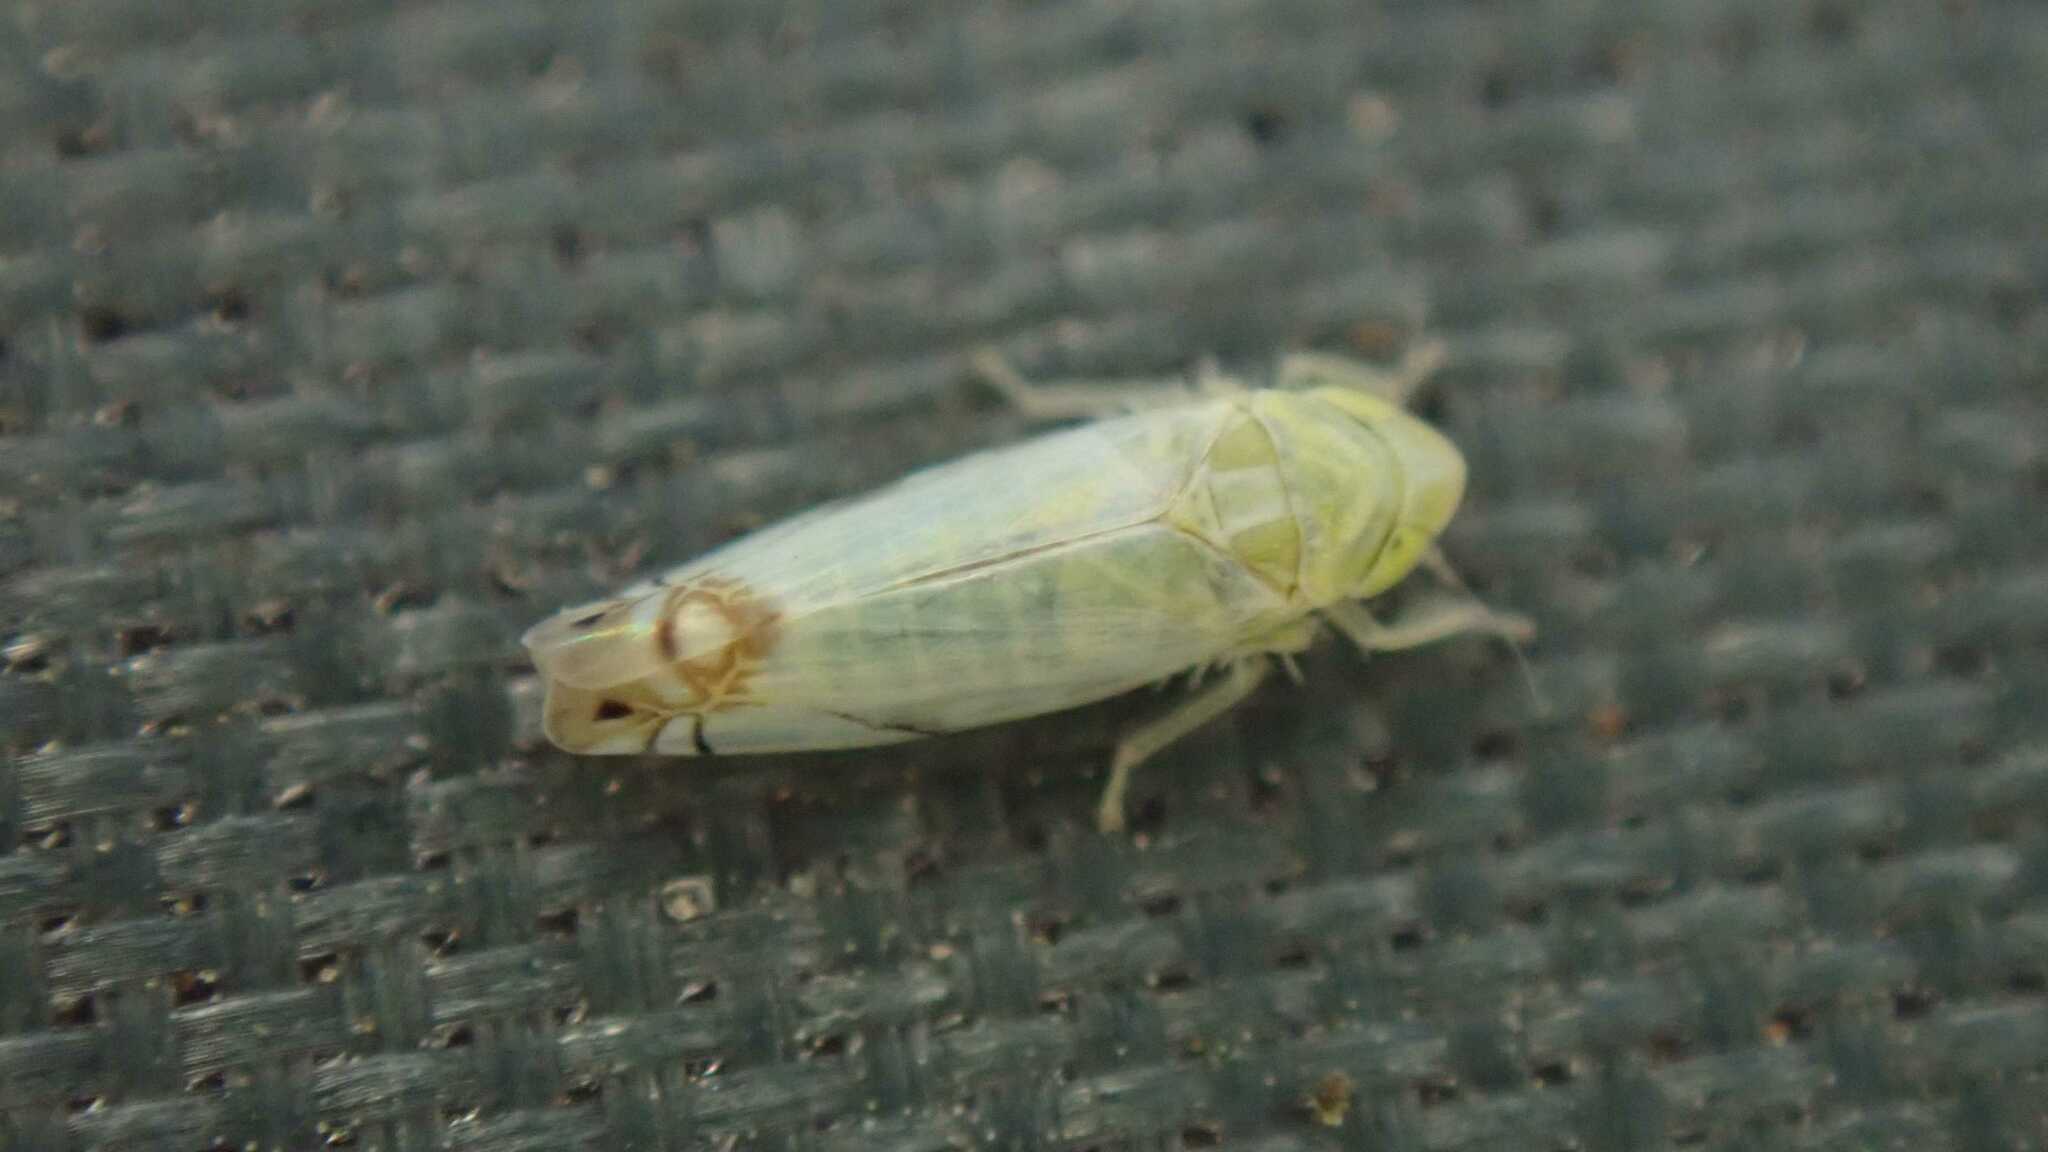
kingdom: Animalia
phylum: Arthropoda
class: Insecta
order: Hemiptera
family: Cicadellidae
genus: Zyginella
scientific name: Zyginella pulchra
